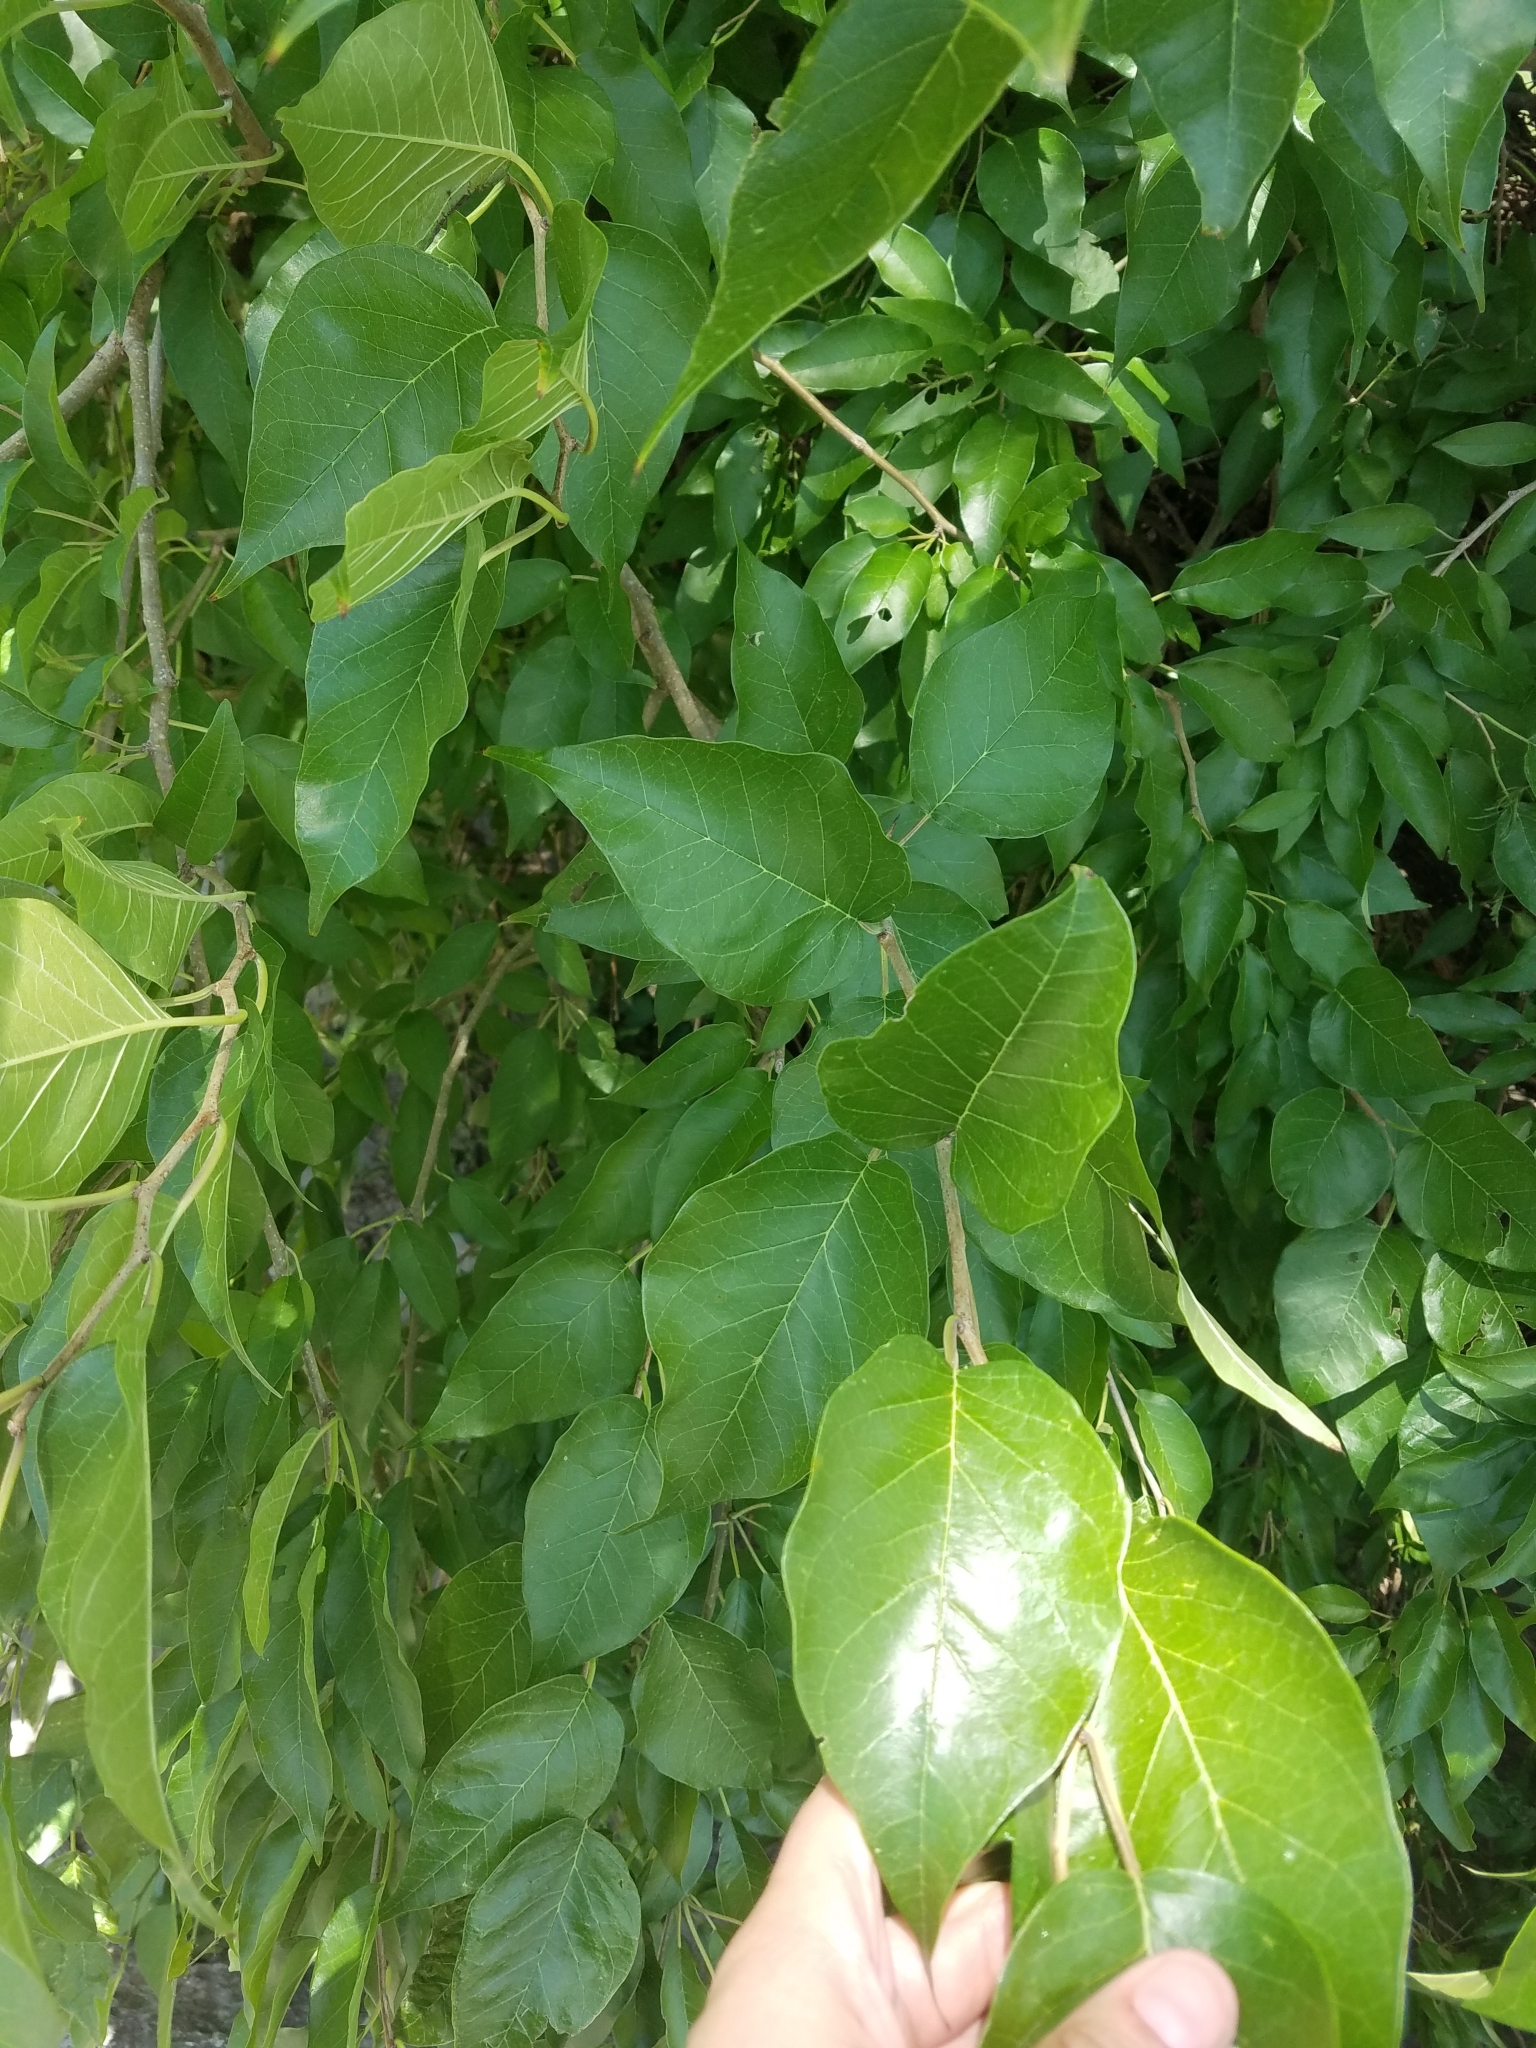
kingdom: Plantae
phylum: Tracheophyta
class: Magnoliopsida
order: Rosales
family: Moraceae
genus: Maclura
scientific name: Maclura pomifera
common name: Osage-orange
